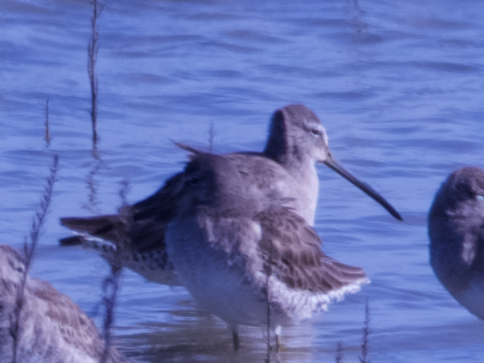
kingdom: Animalia
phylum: Chordata
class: Aves
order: Charadriiformes
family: Scolopacidae
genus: Limnodromus
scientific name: Limnodromus scolopaceus
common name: Long-billed dowitcher
